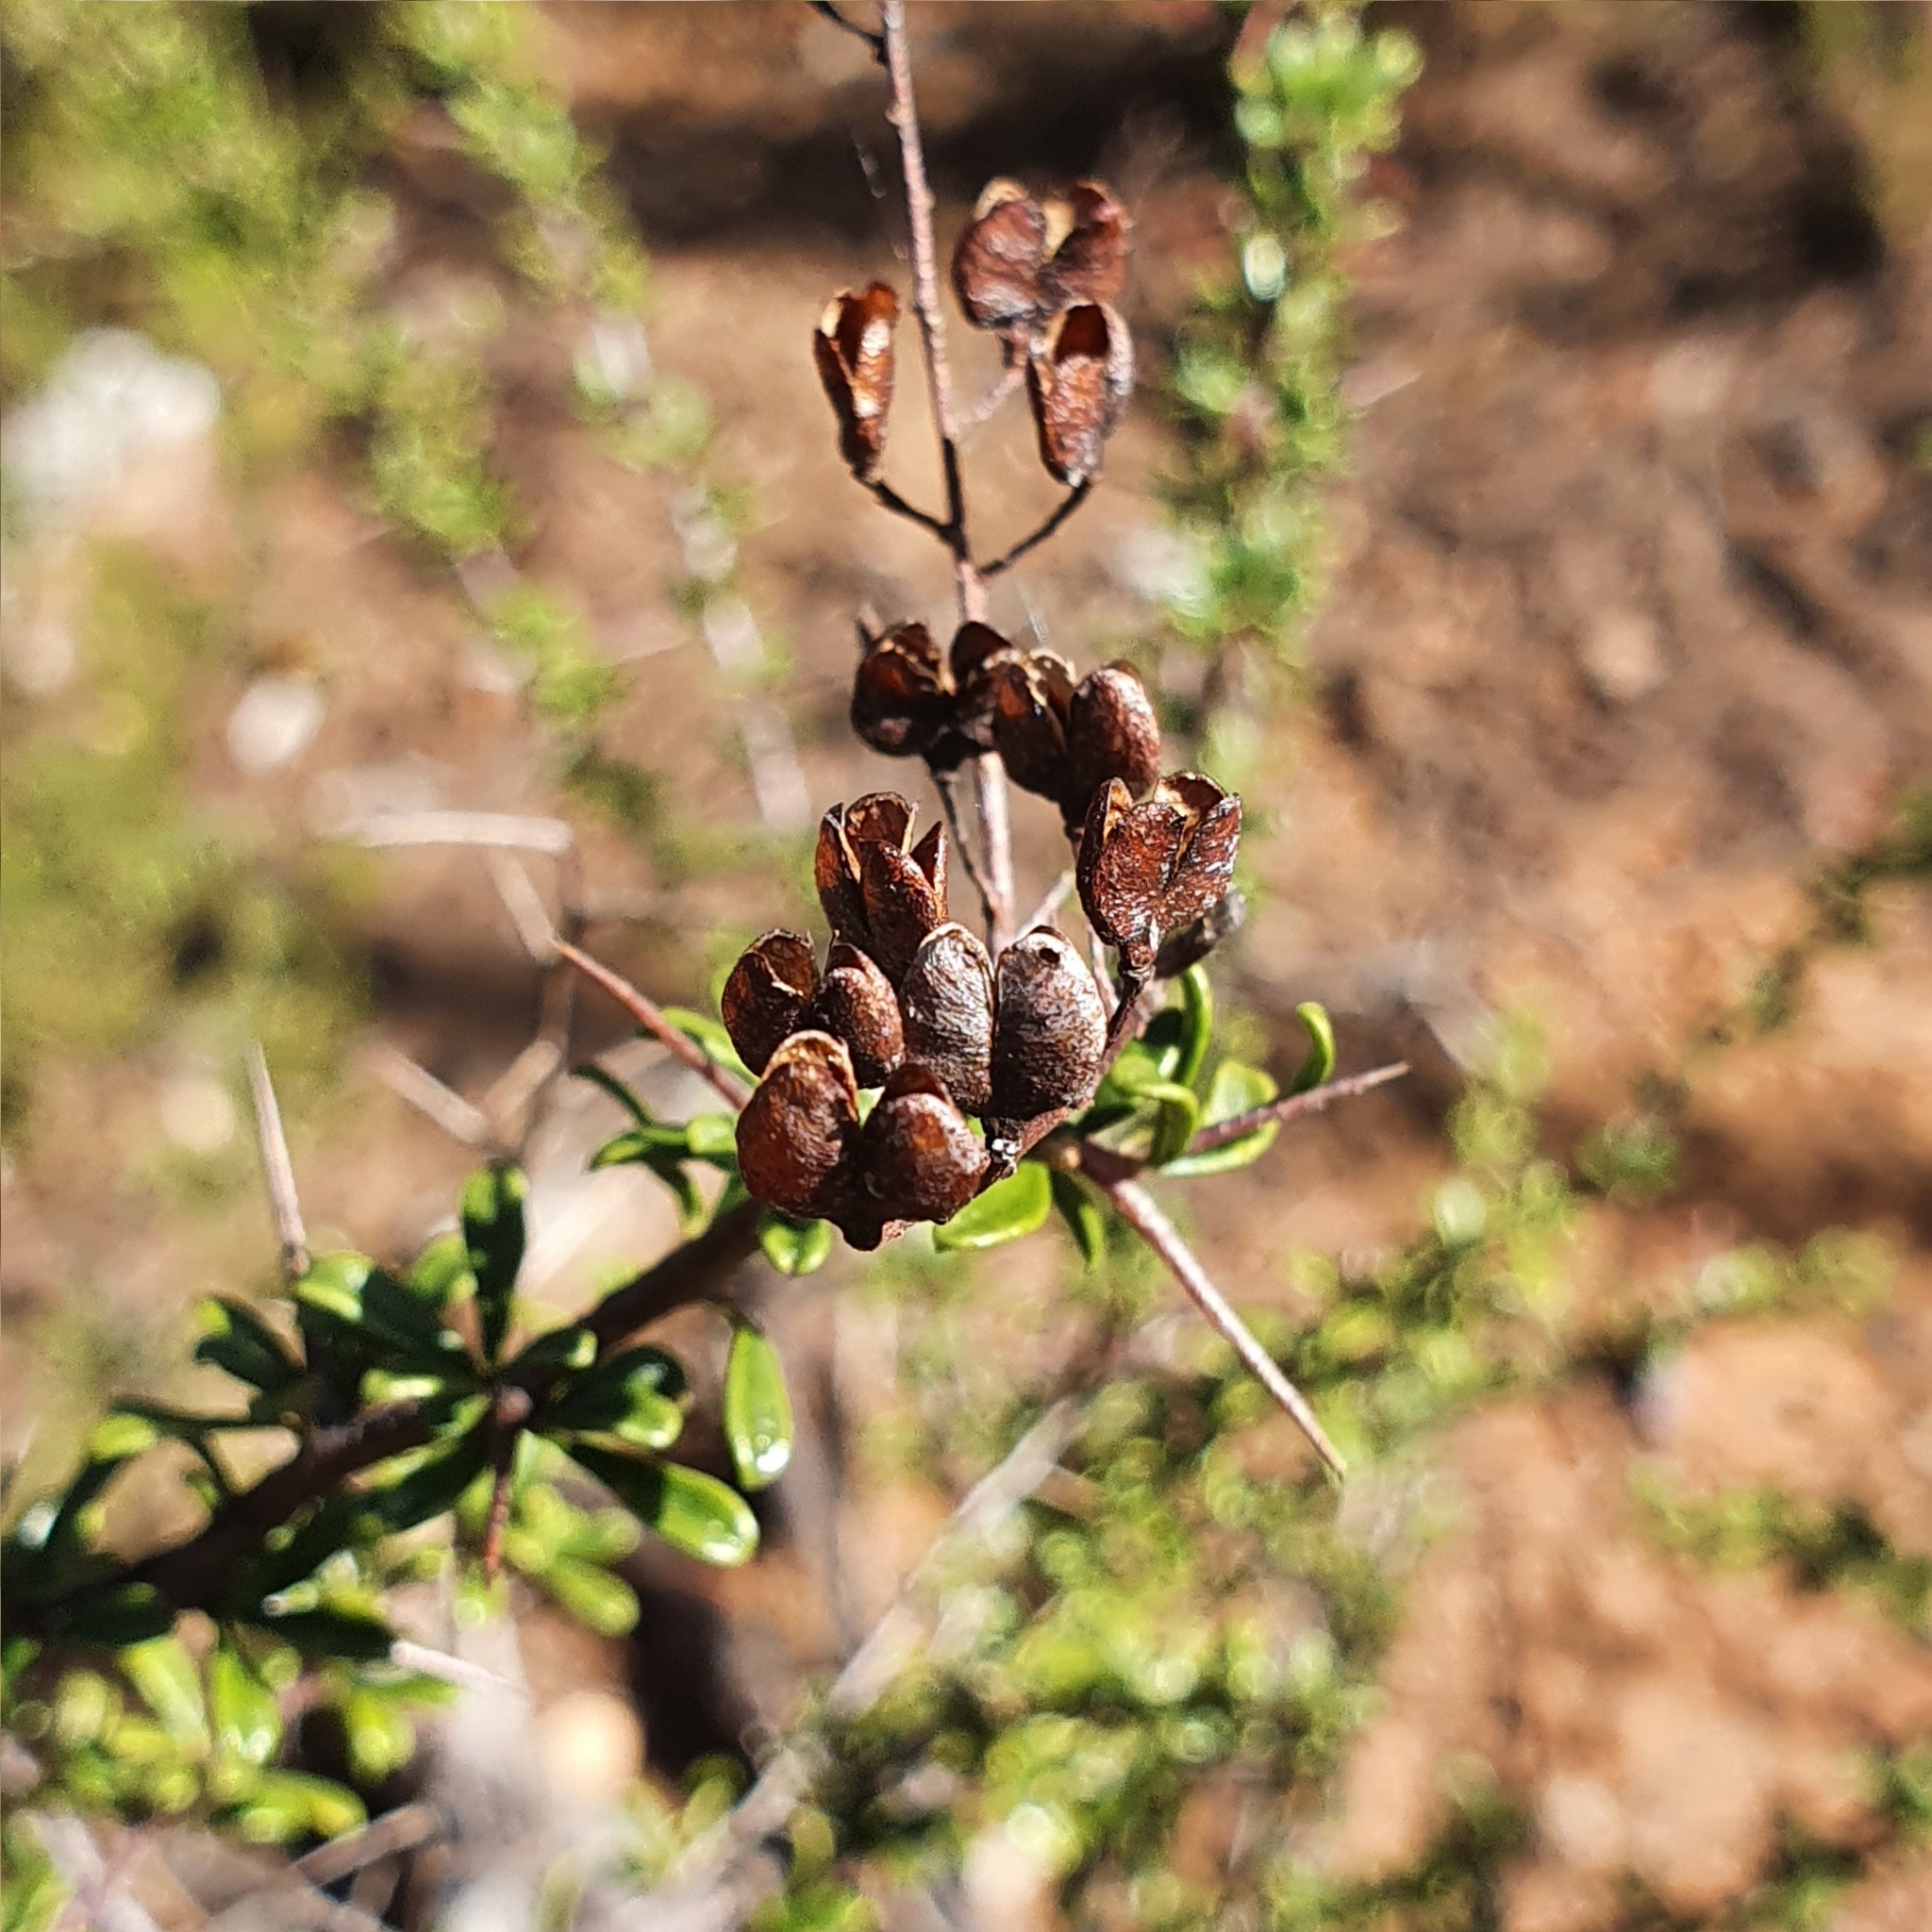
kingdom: Plantae
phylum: Tracheophyta
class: Magnoliopsida
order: Apiales
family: Pittosporaceae
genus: Bursaria
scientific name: Bursaria spinosa
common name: Australian blackthorn
